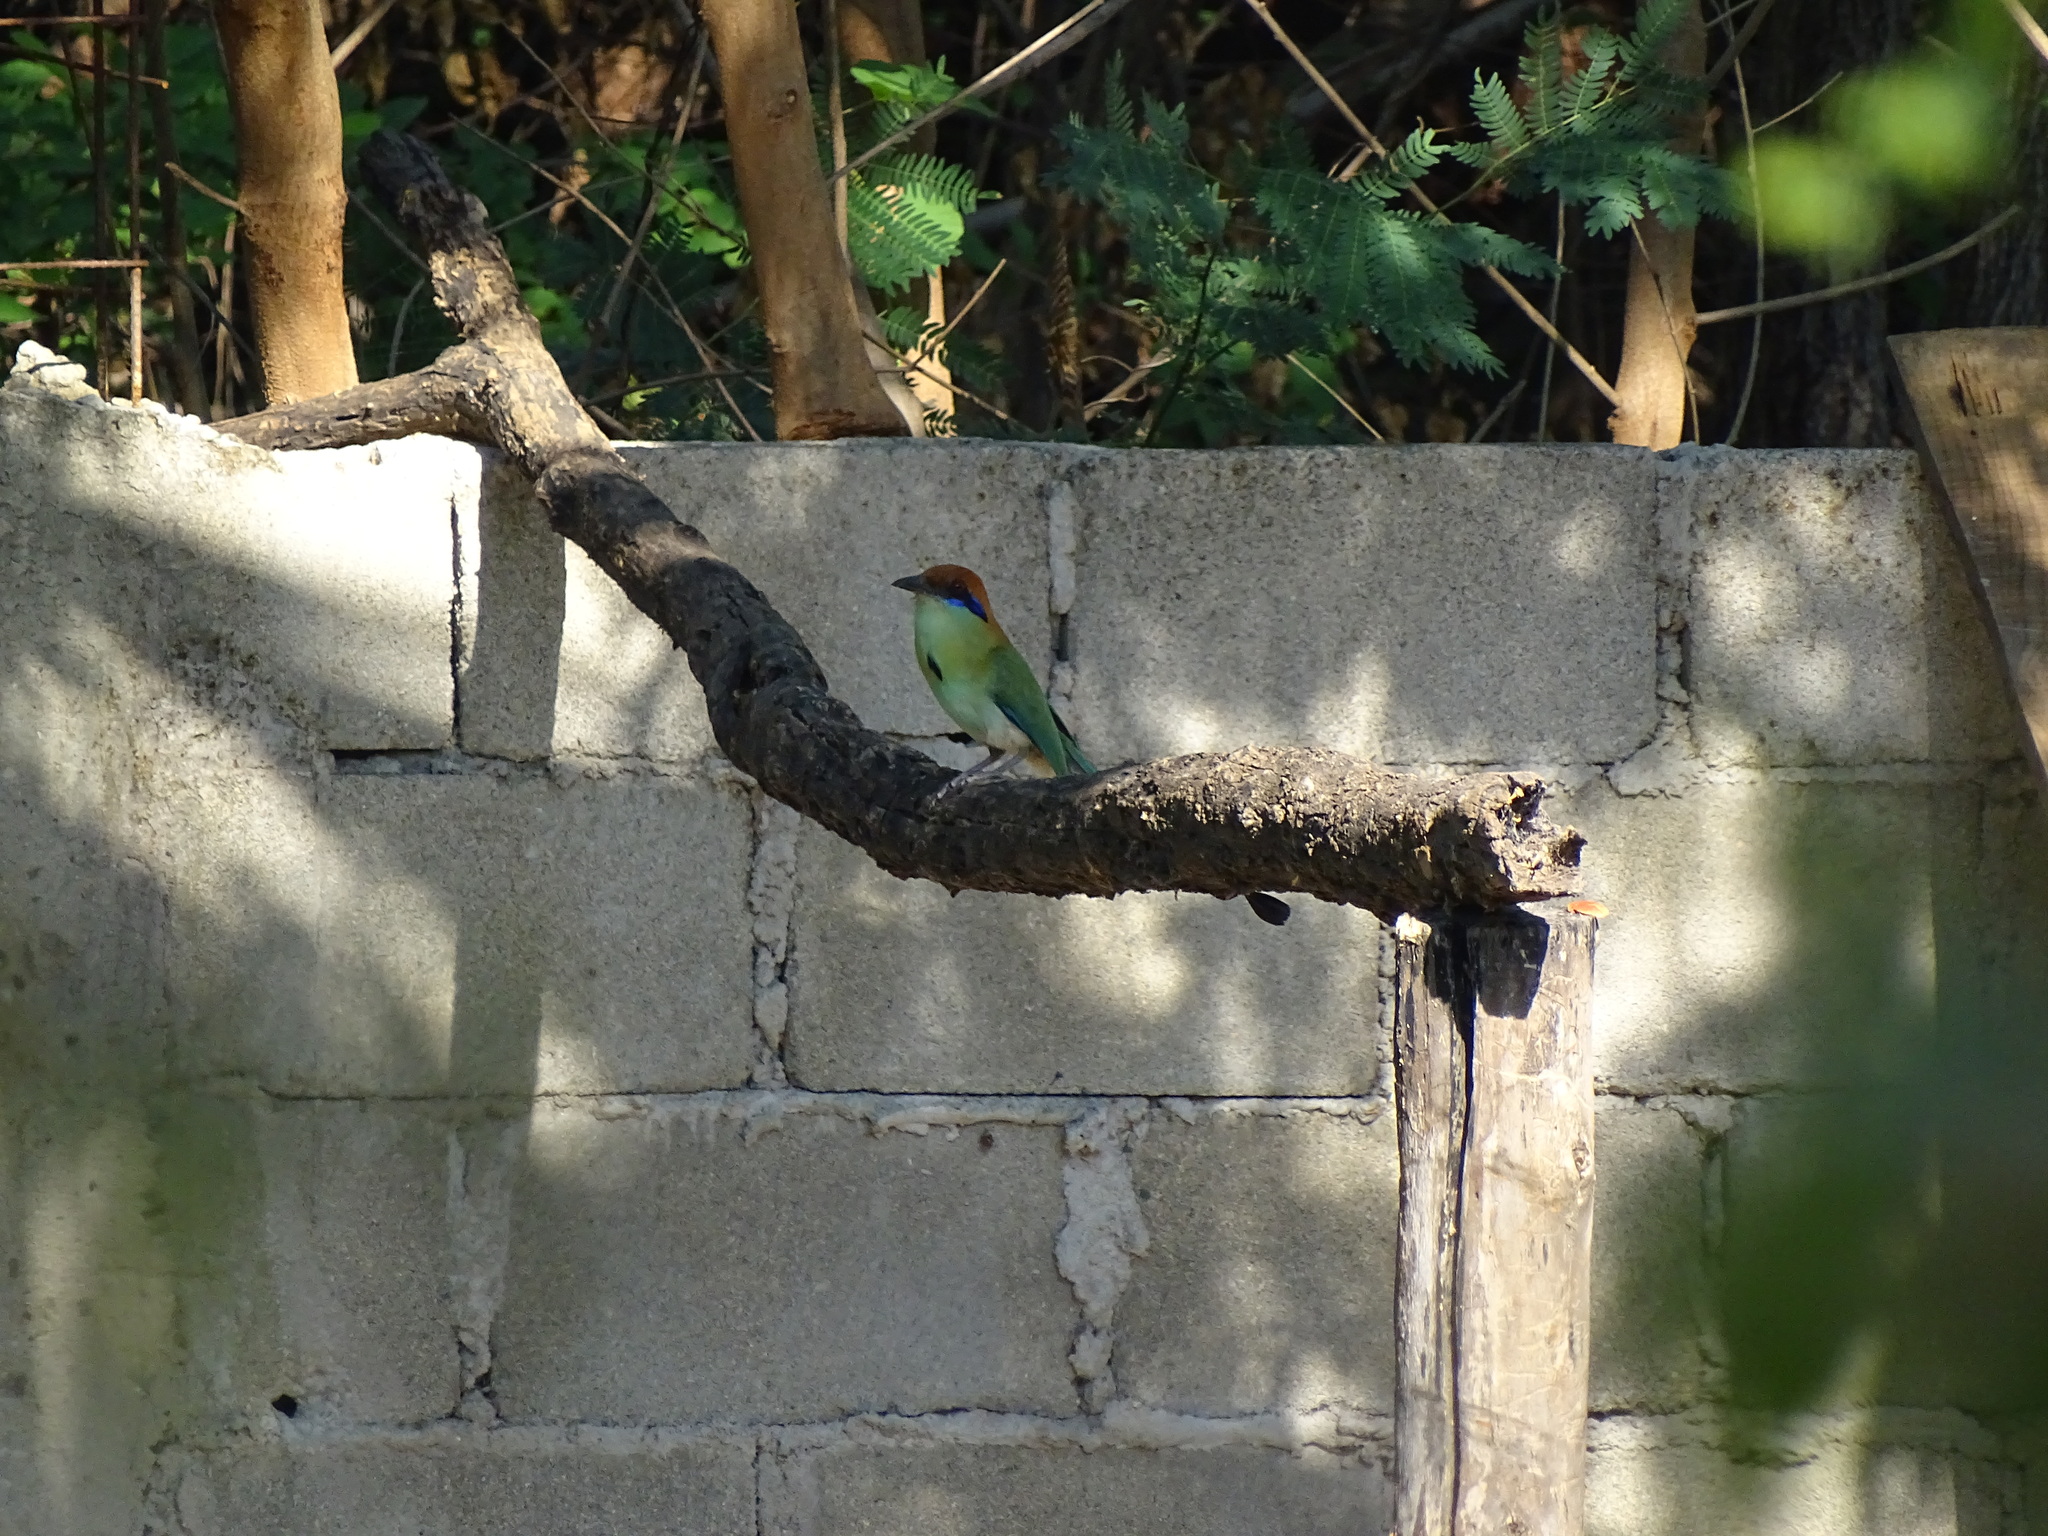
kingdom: Animalia
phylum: Chordata
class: Aves
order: Coraciiformes
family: Momotidae
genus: Momotus
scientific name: Momotus mexicanus
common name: Russet-crowned motmot
